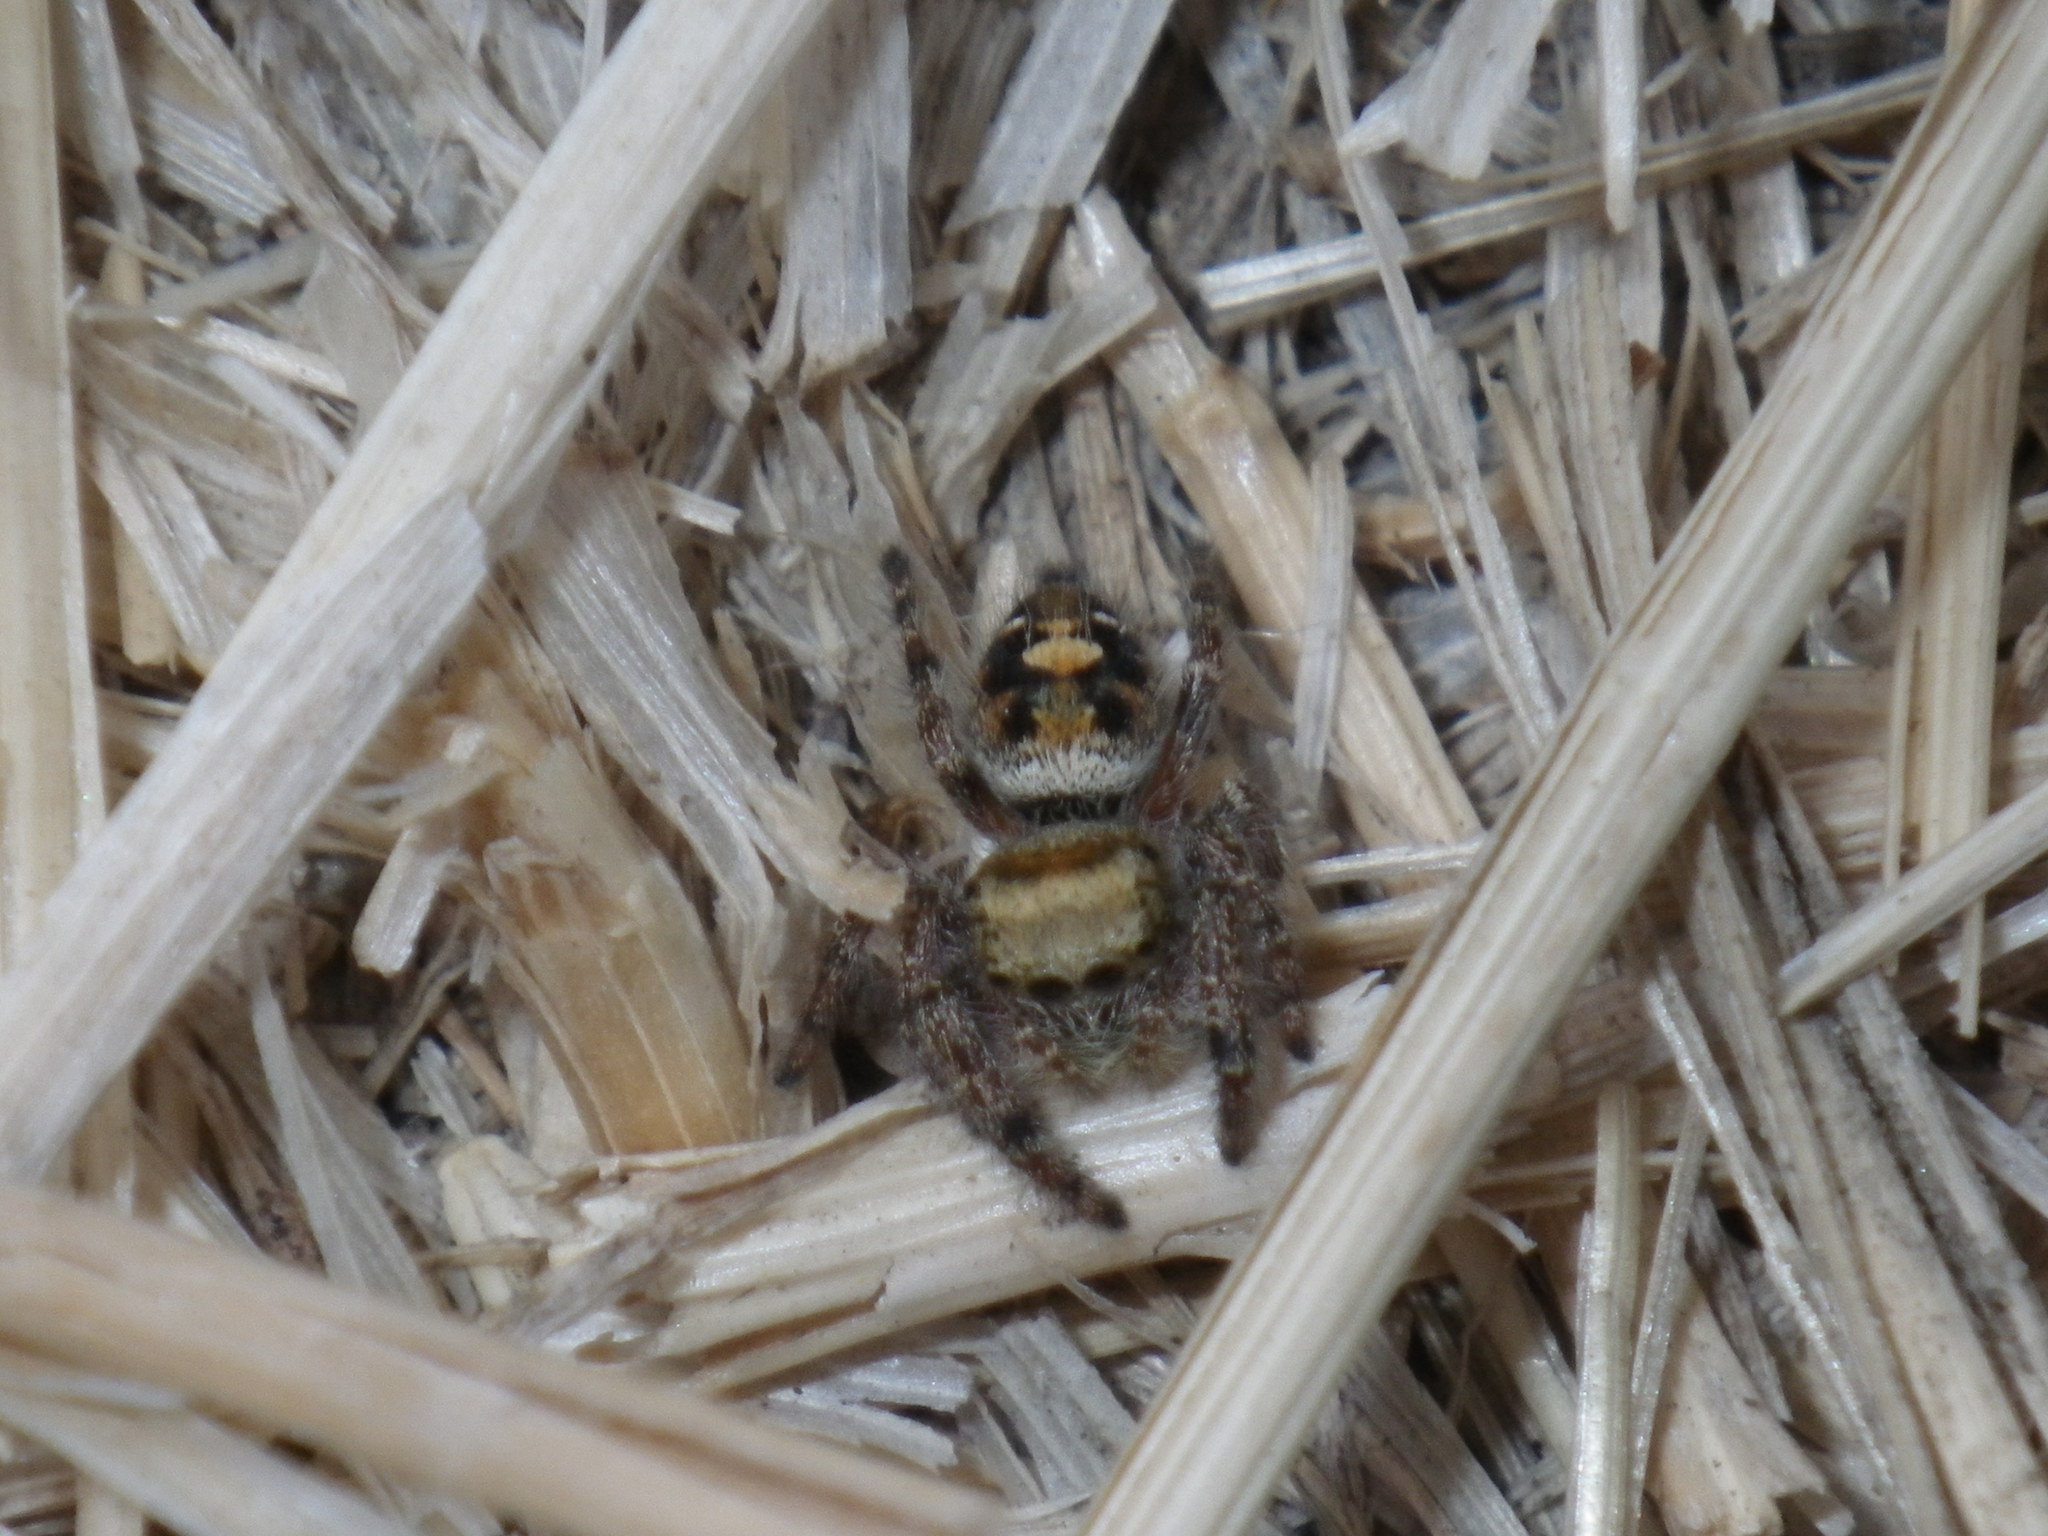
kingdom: Animalia
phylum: Arthropoda
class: Arachnida
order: Araneae
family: Salticidae
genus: Phidippus
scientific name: Phidippus audax
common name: Bold jumper
